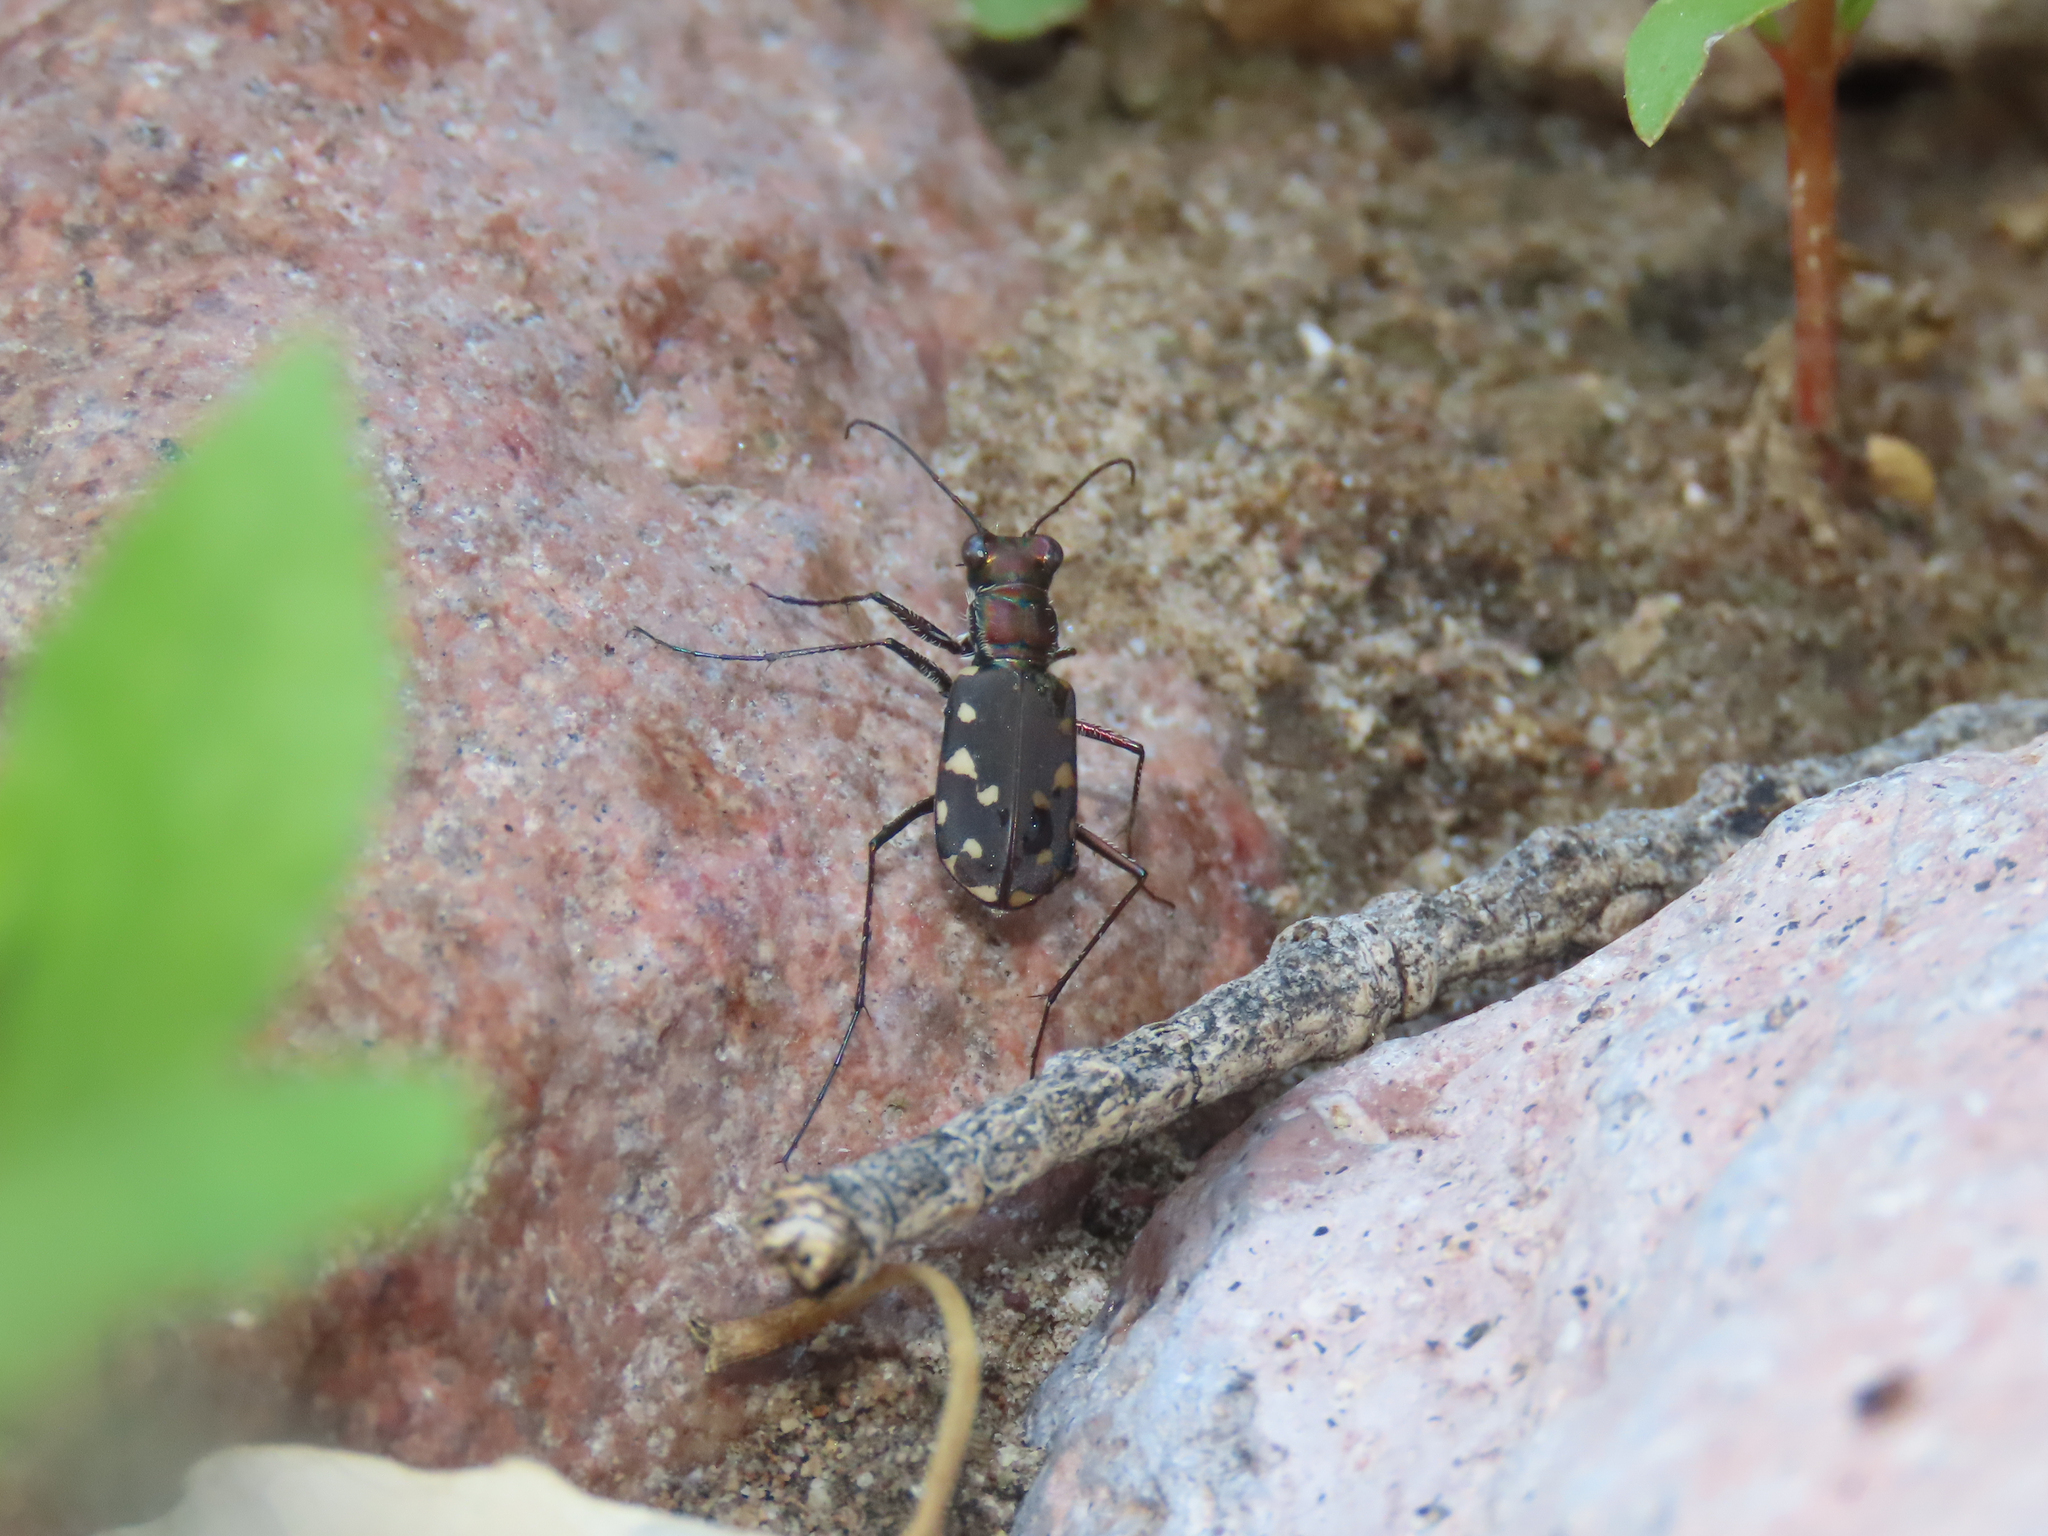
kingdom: Animalia
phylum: Arthropoda
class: Insecta
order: Coleoptera
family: Carabidae
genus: Cicindela
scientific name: Cicindela sedecimpunctata
